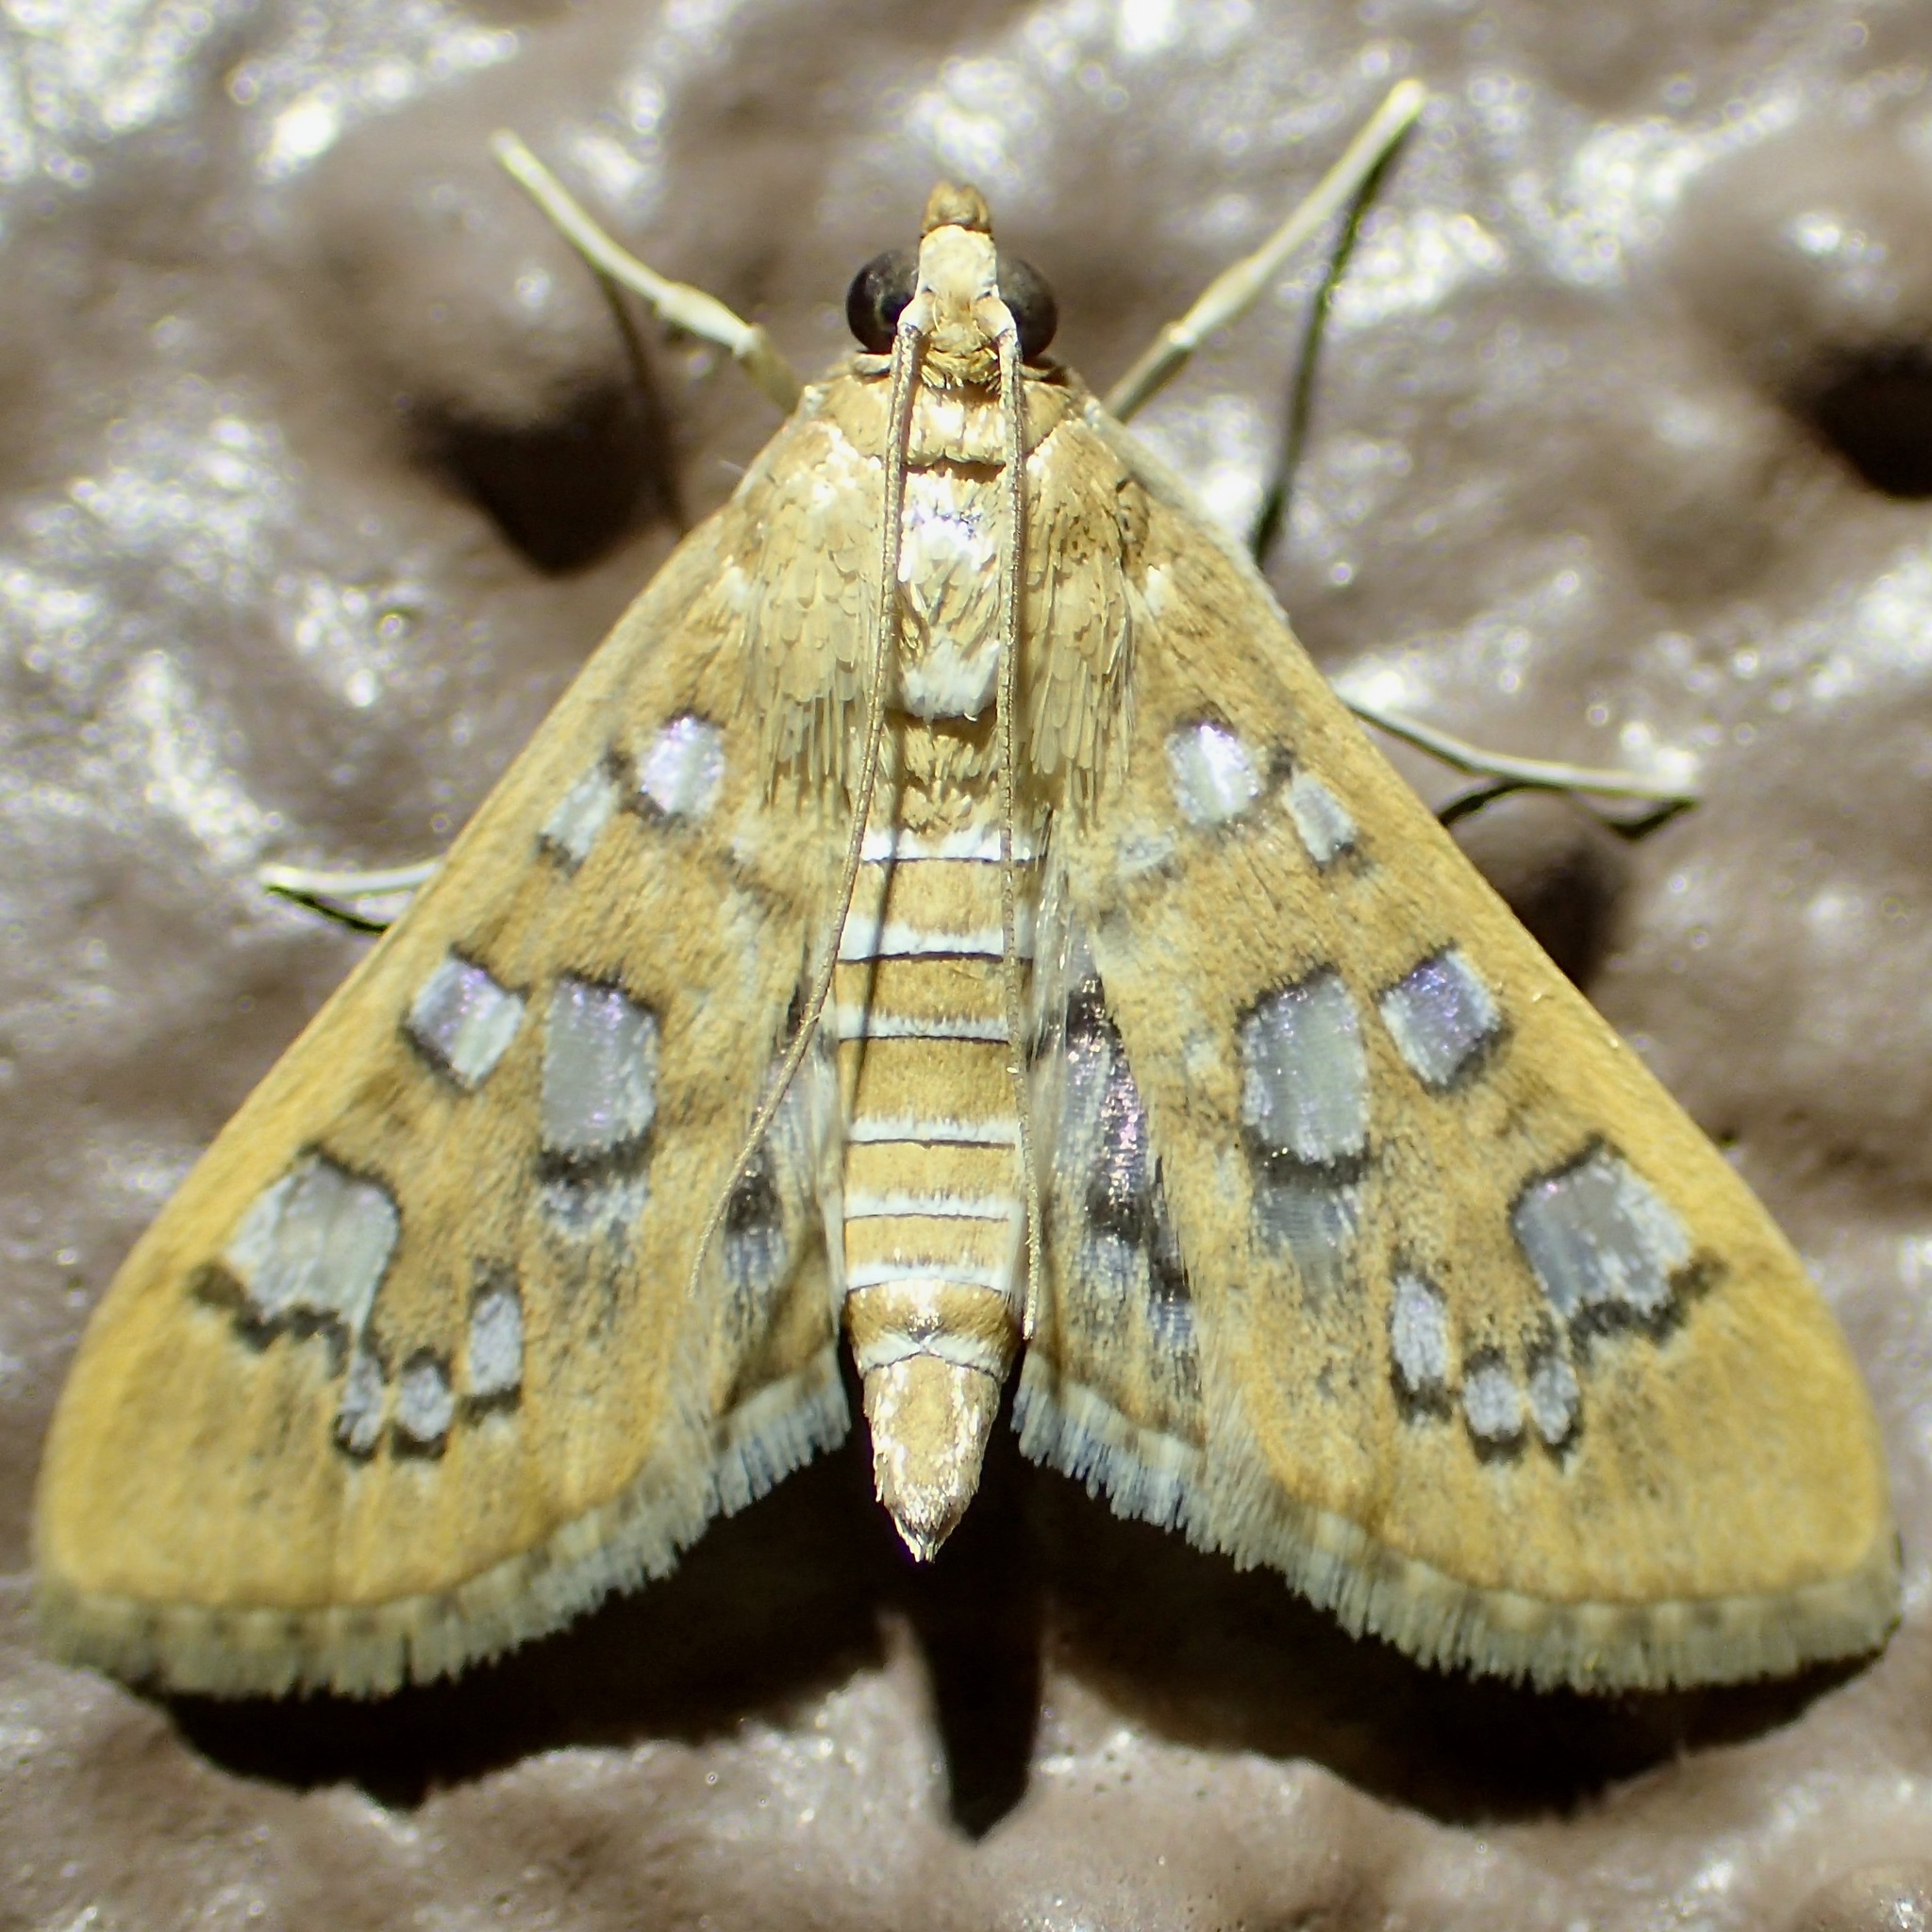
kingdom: Animalia
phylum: Arthropoda
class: Insecta
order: Lepidoptera
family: Crambidae
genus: Samea
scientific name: Samea baccatalis
